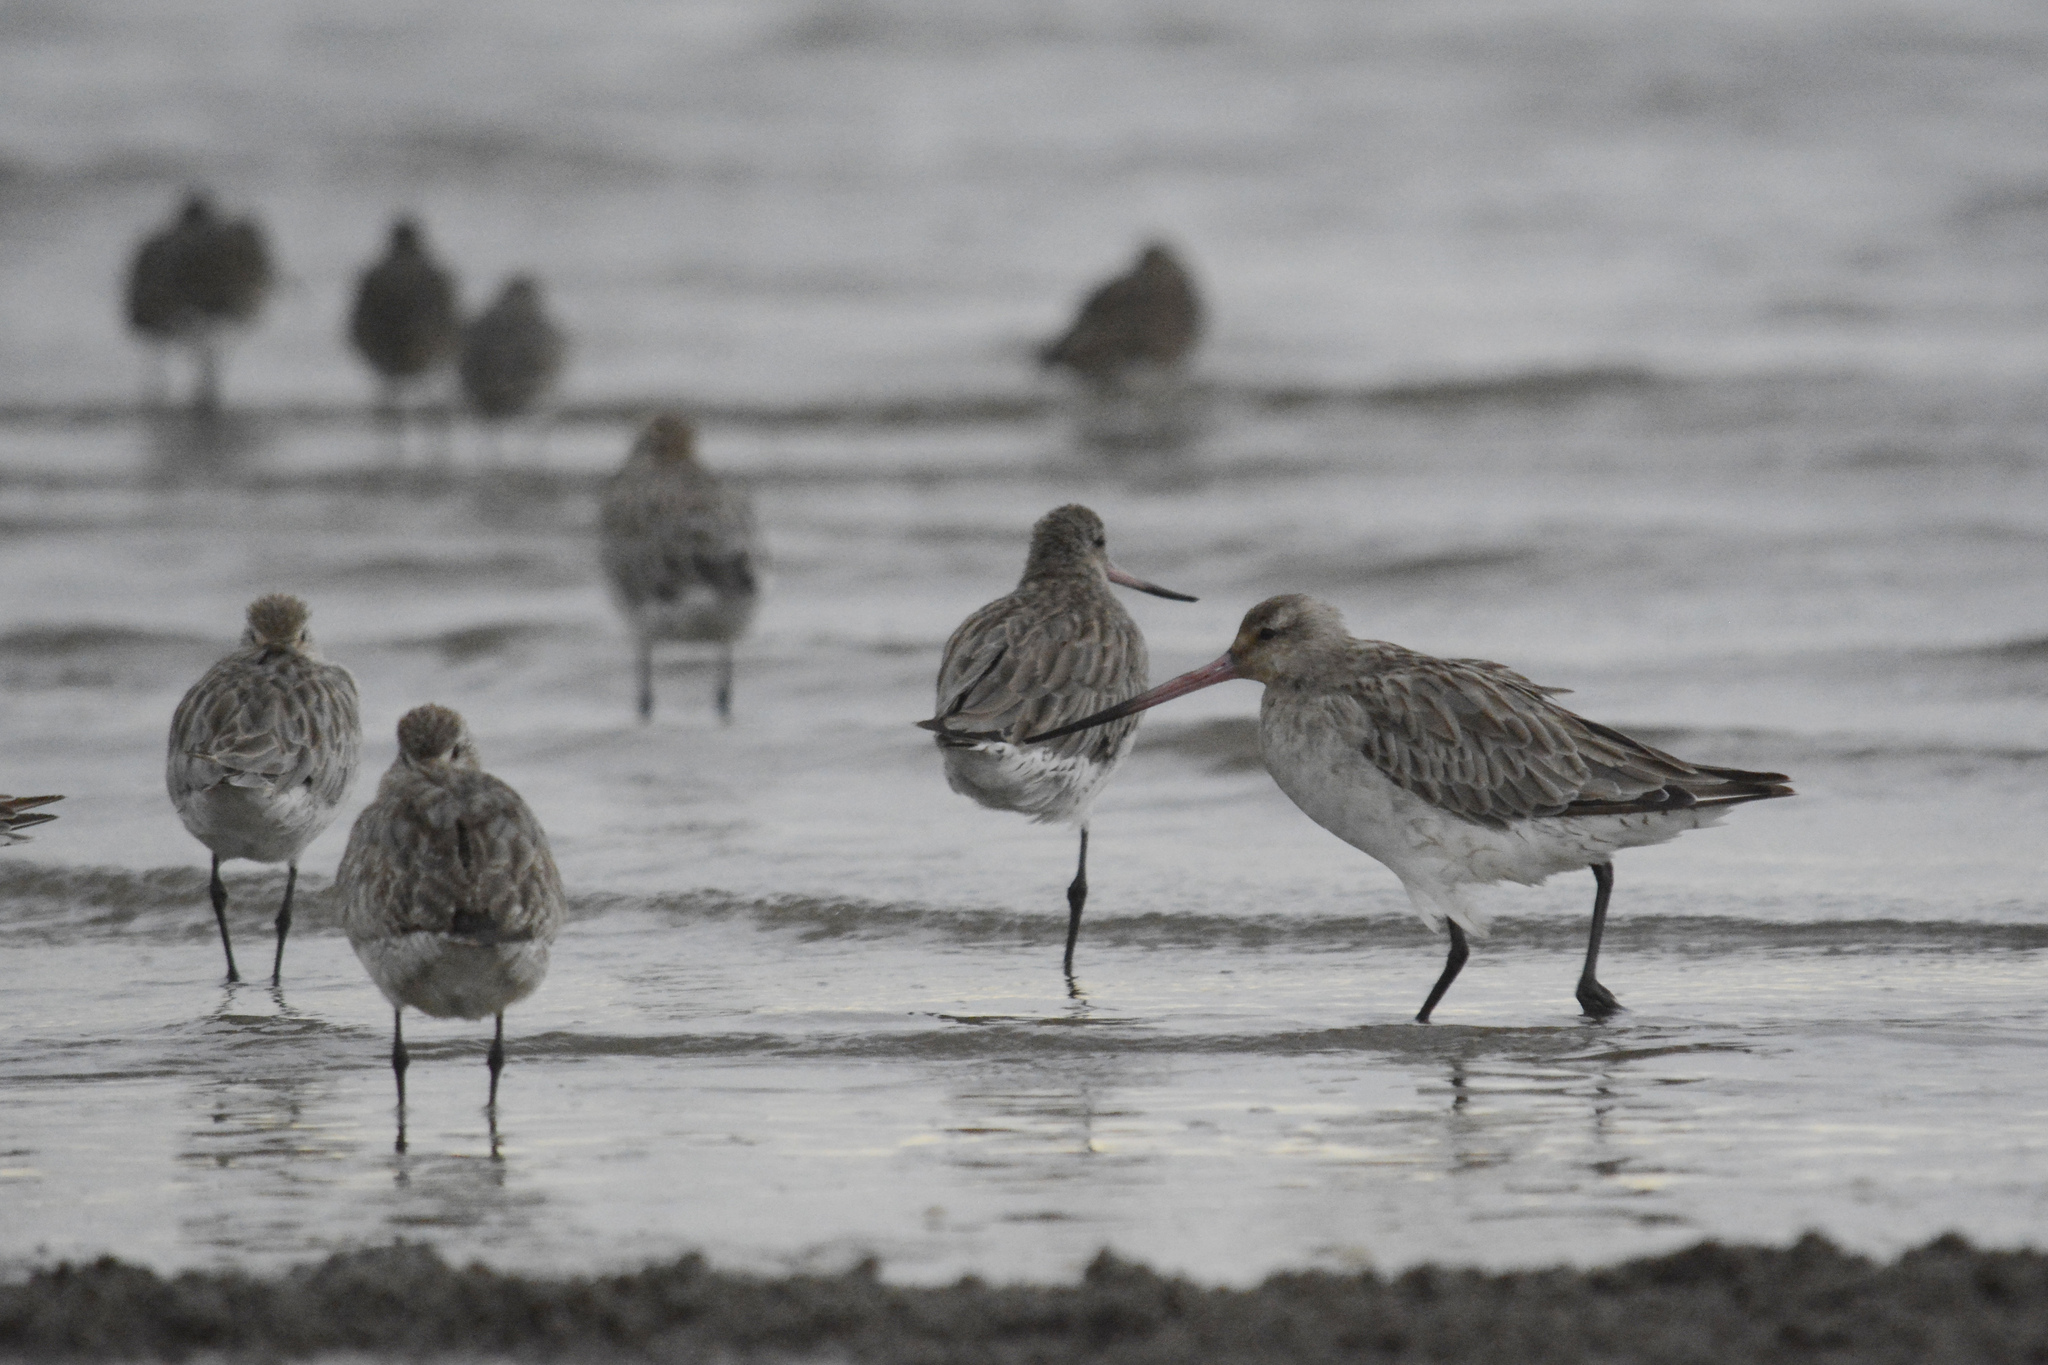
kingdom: Animalia
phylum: Chordata
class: Aves
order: Charadriiformes
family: Scolopacidae
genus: Limosa
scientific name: Limosa lapponica
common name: Bar-tailed godwit
